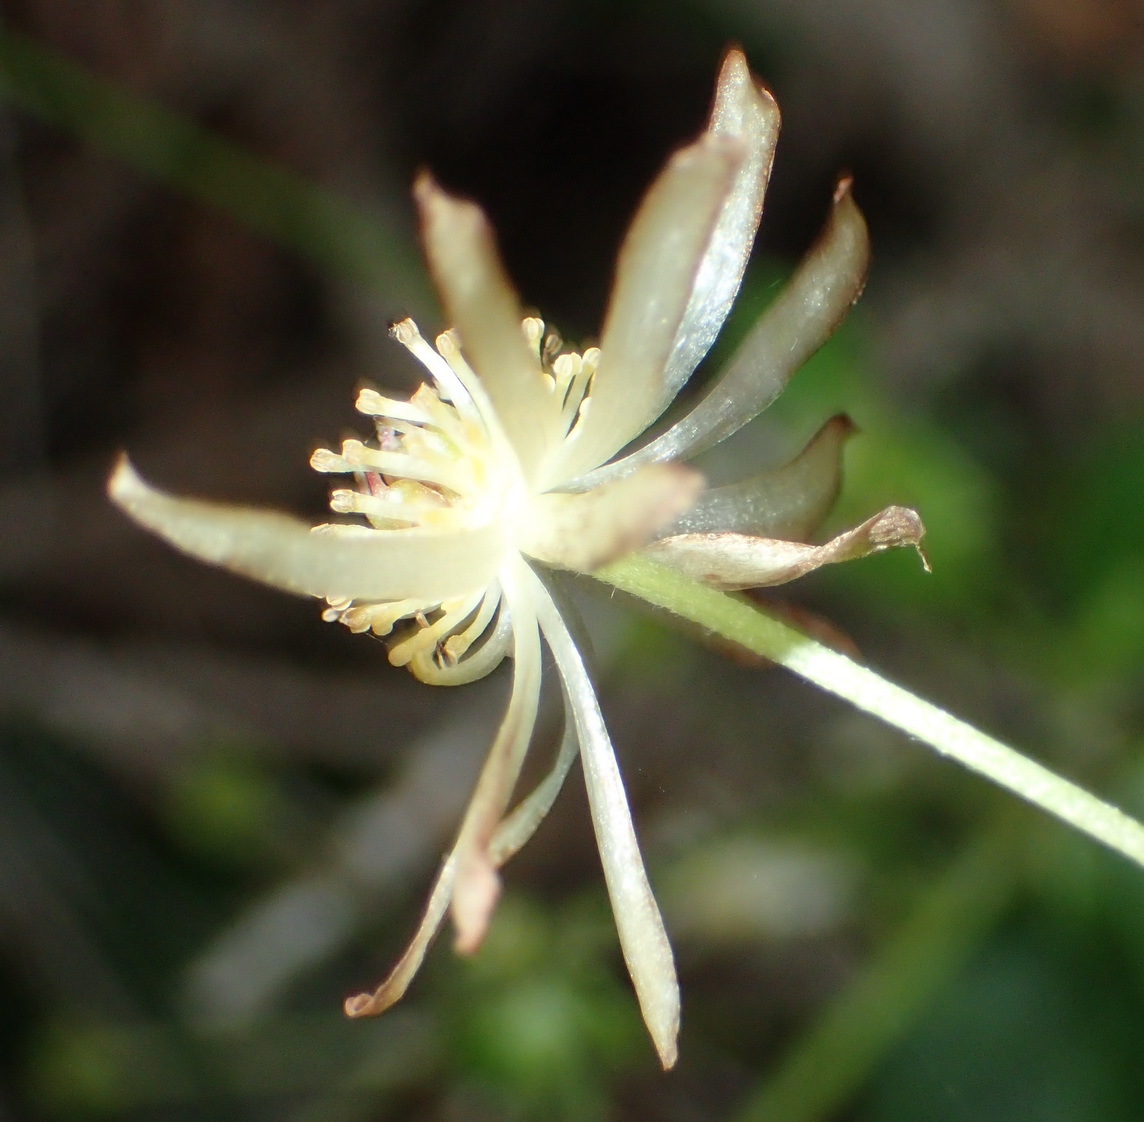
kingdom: Plantae
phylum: Tracheophyta
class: Magnoliopsida
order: Ranunculales
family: Ranunculaceae
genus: Knowltonia
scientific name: Knowltonia vesicatoria
